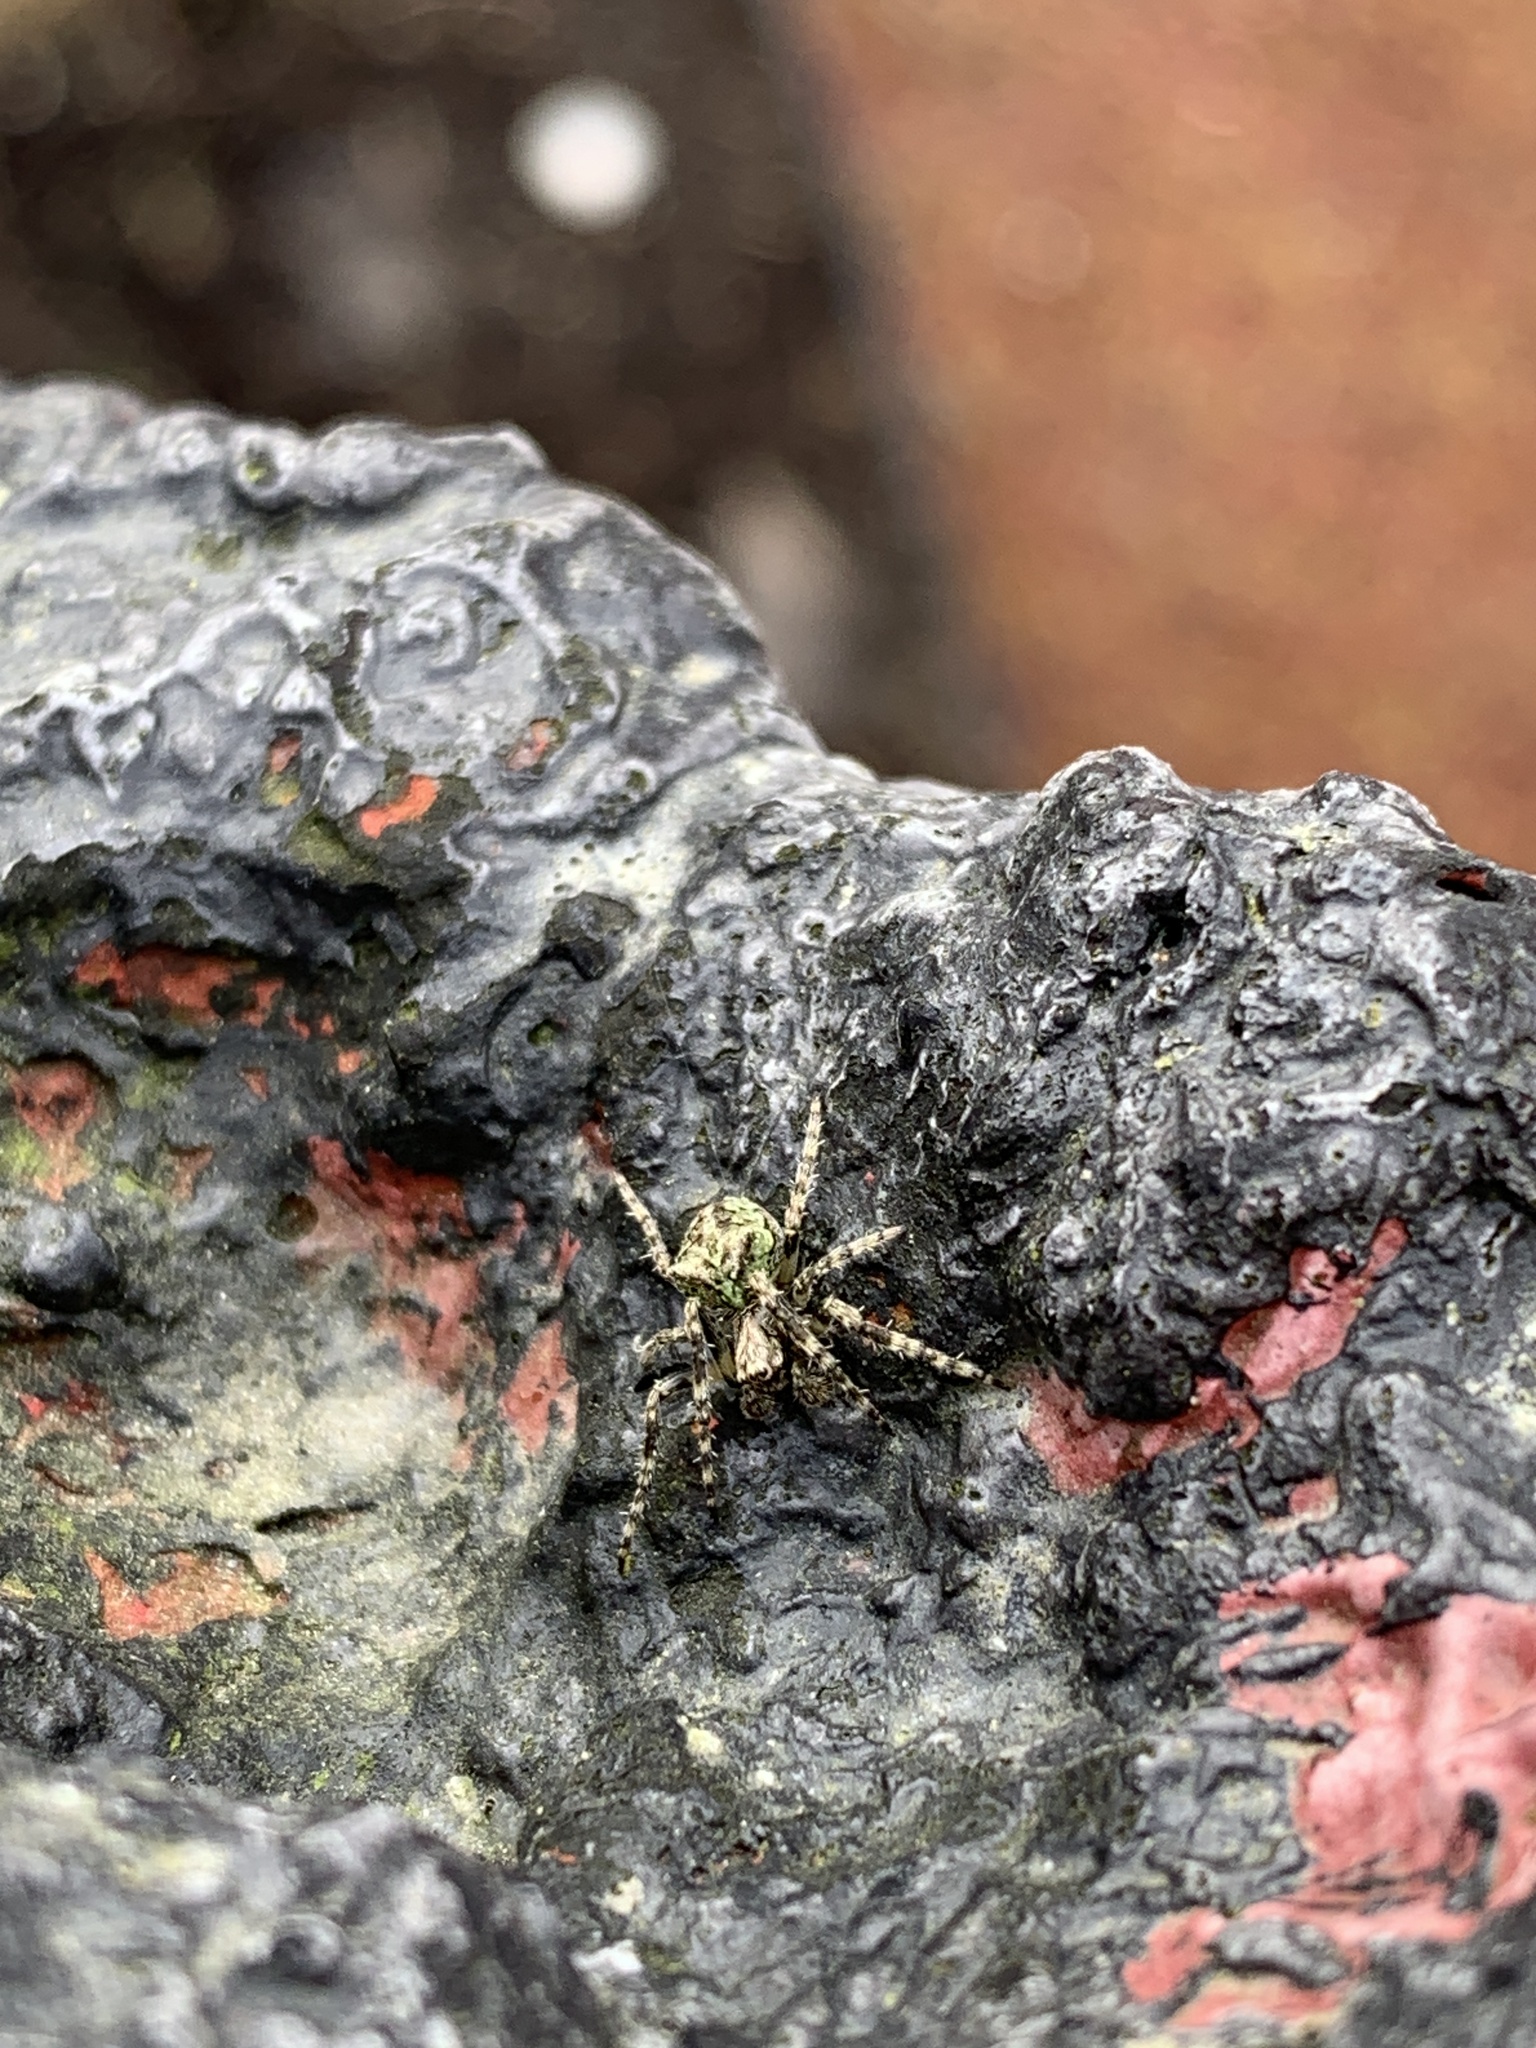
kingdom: Animalia
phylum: Arthropoda
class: Arachnida
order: Araneae
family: Araneidae
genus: Gibbaranea
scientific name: Gibbaranea gibbosa
